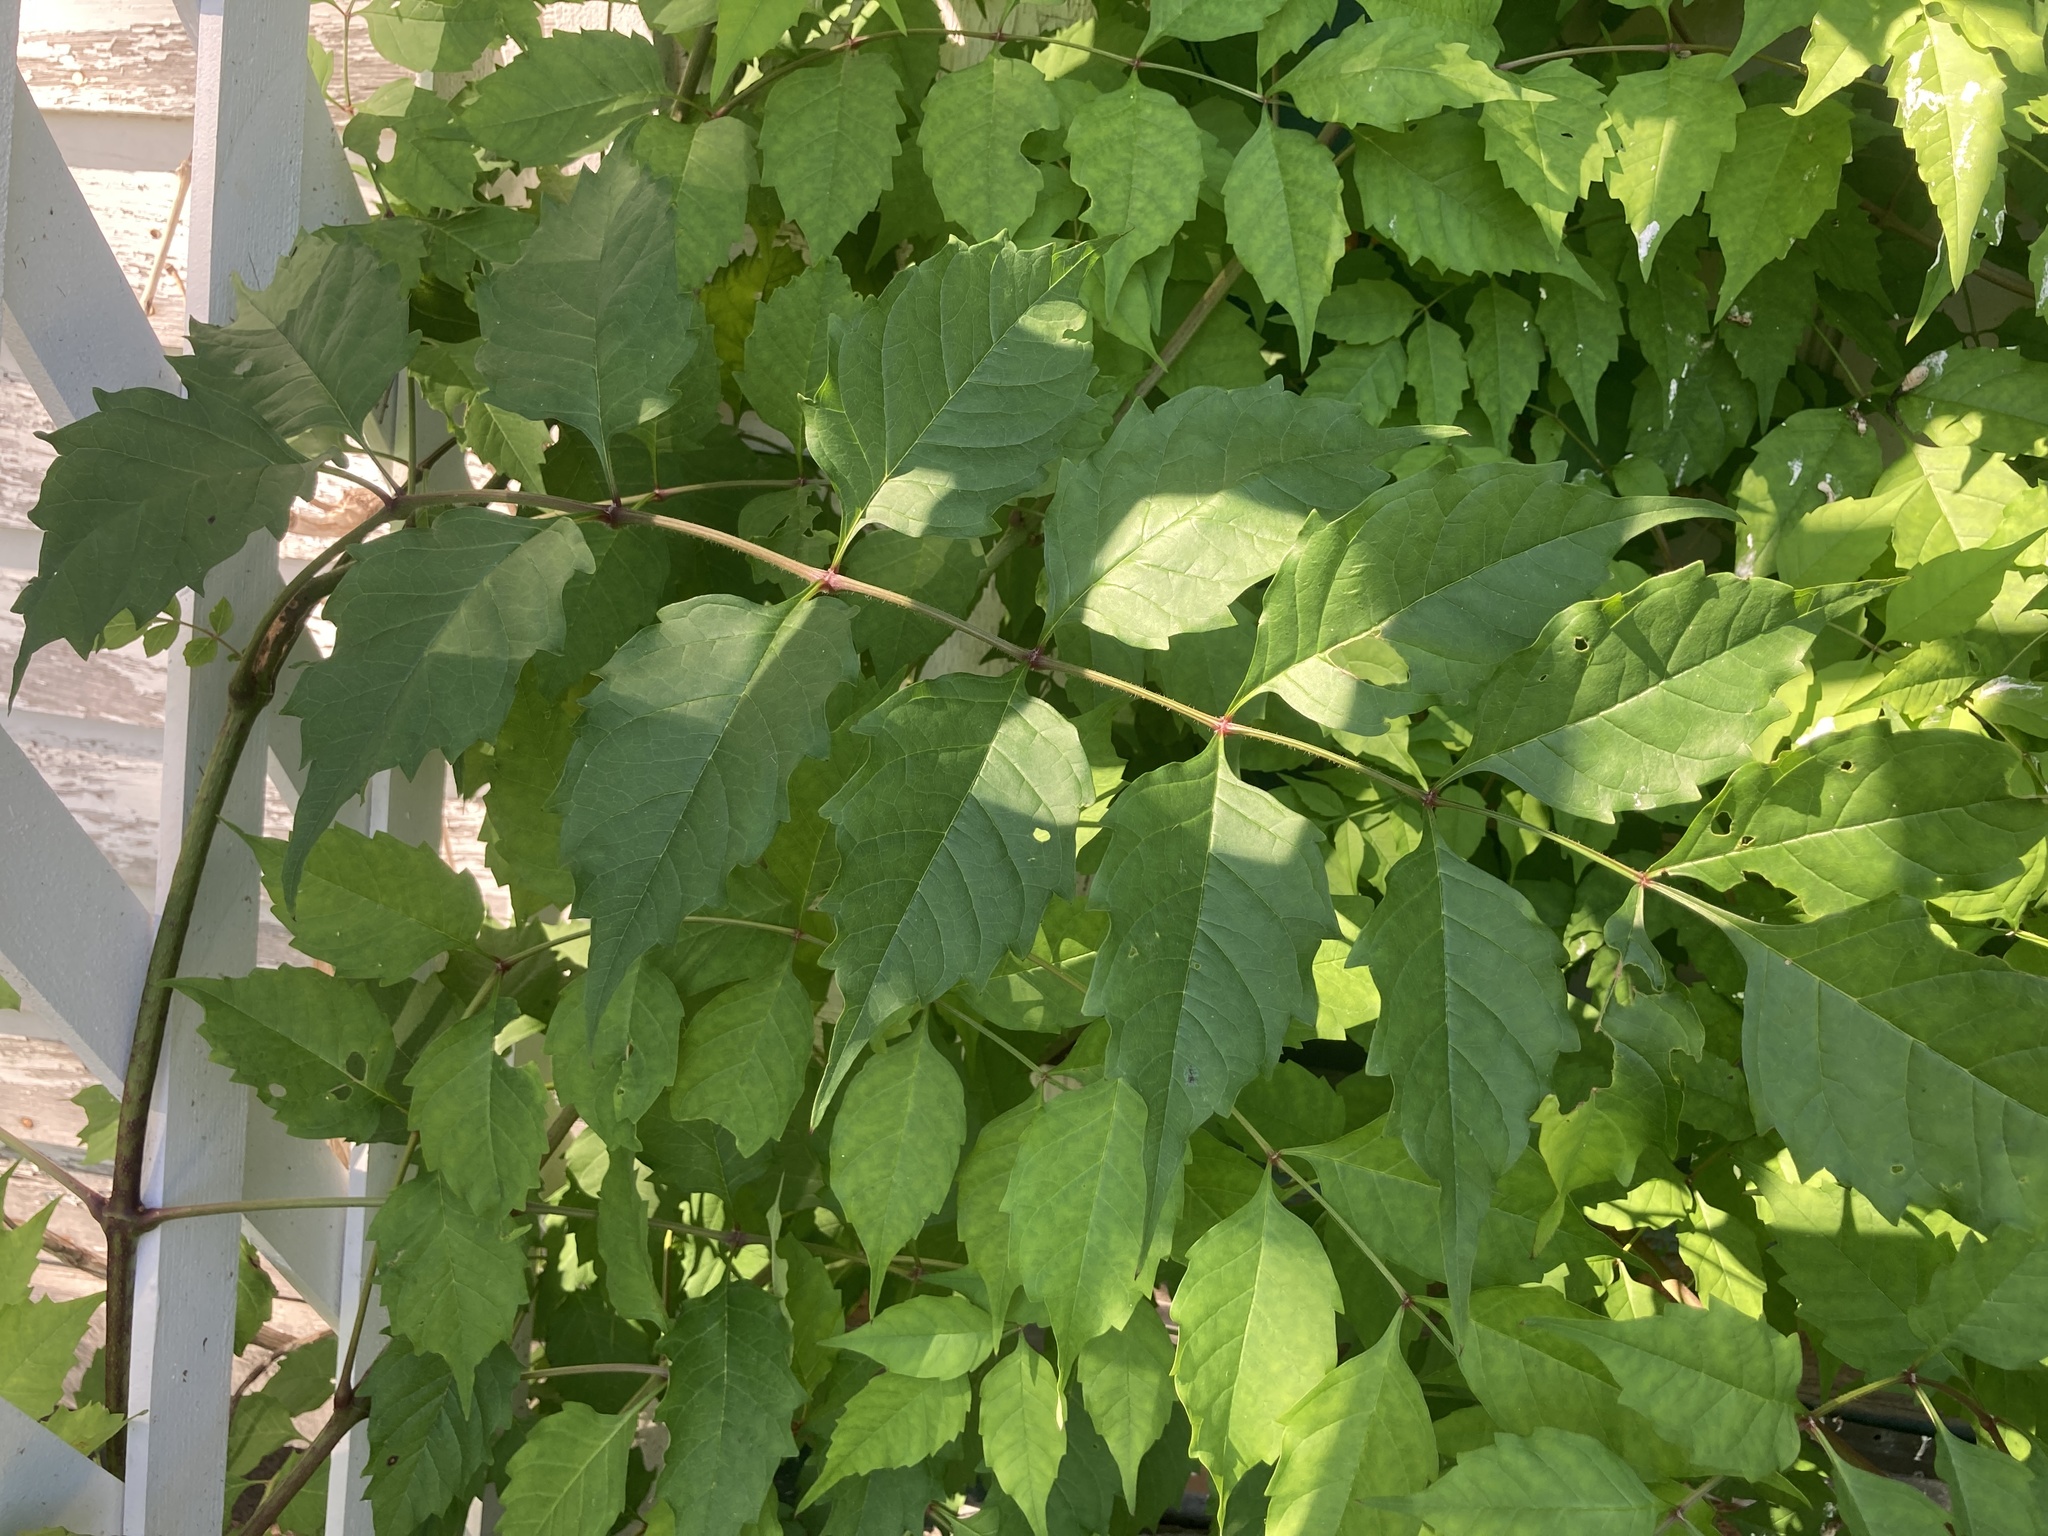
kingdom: Plantae
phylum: Tracheophyta
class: Magnoliopsida
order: Lamiales
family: Bignoniaceae
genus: Campsis
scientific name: Campsis radicans
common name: Trumpet-creeper
